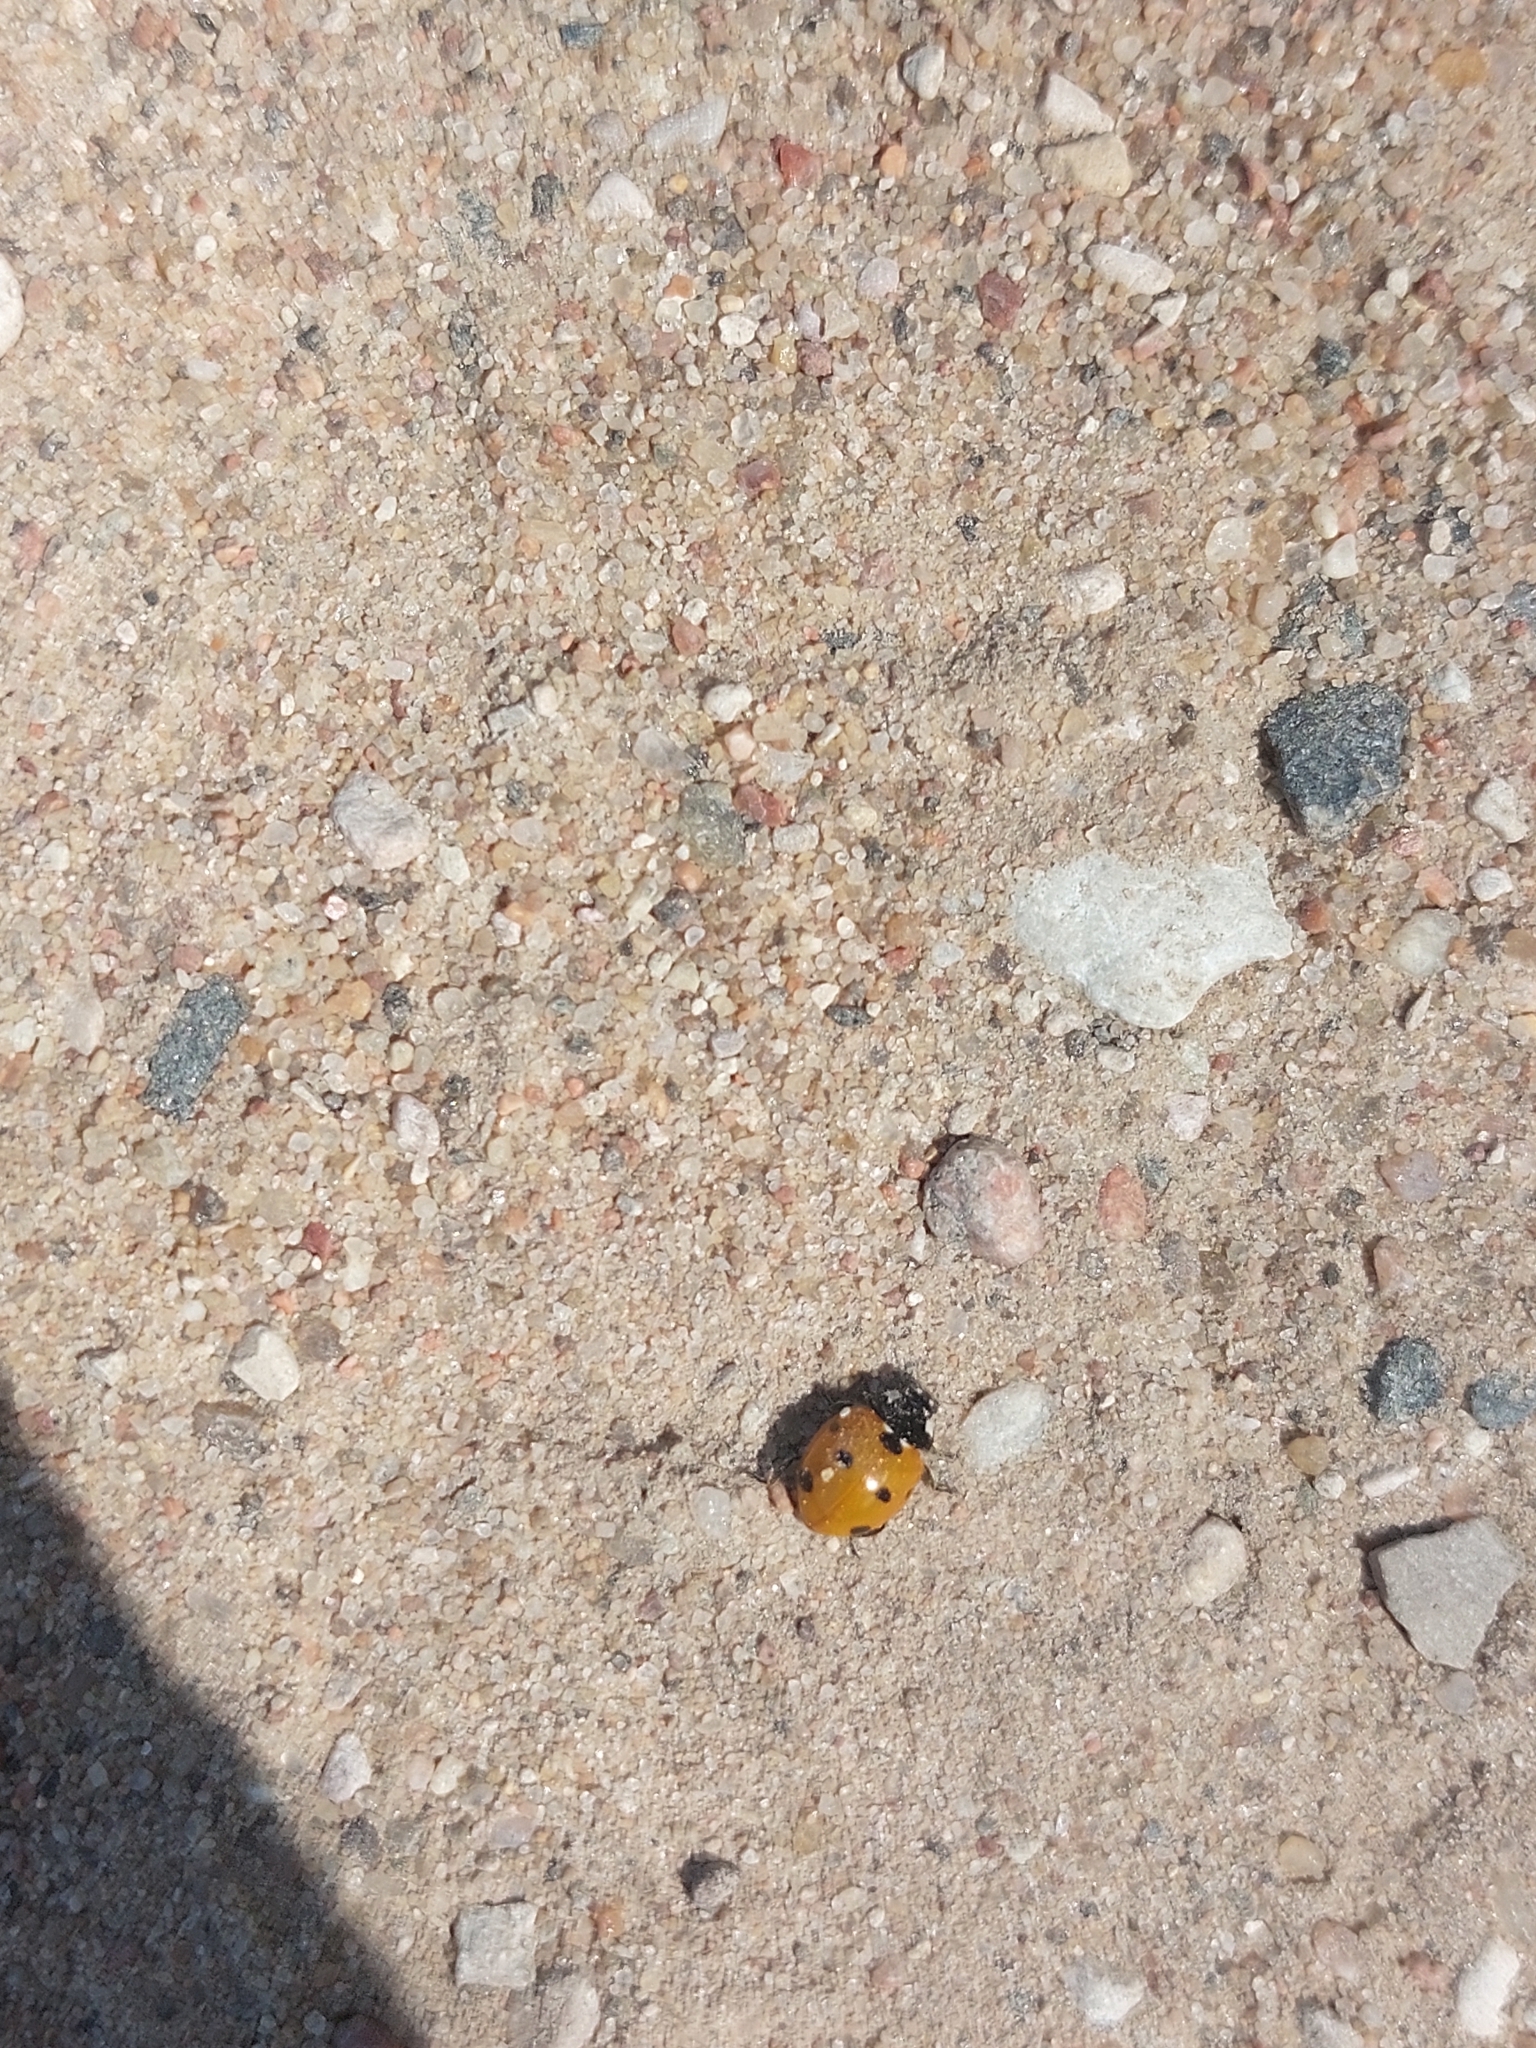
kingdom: Animalia
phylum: Arthropoda
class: Insecta
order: Coleoptera
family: Coccinellidae
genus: Coccinella
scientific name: Coccinella septempunctata
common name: Sevenspotted lady beetle
